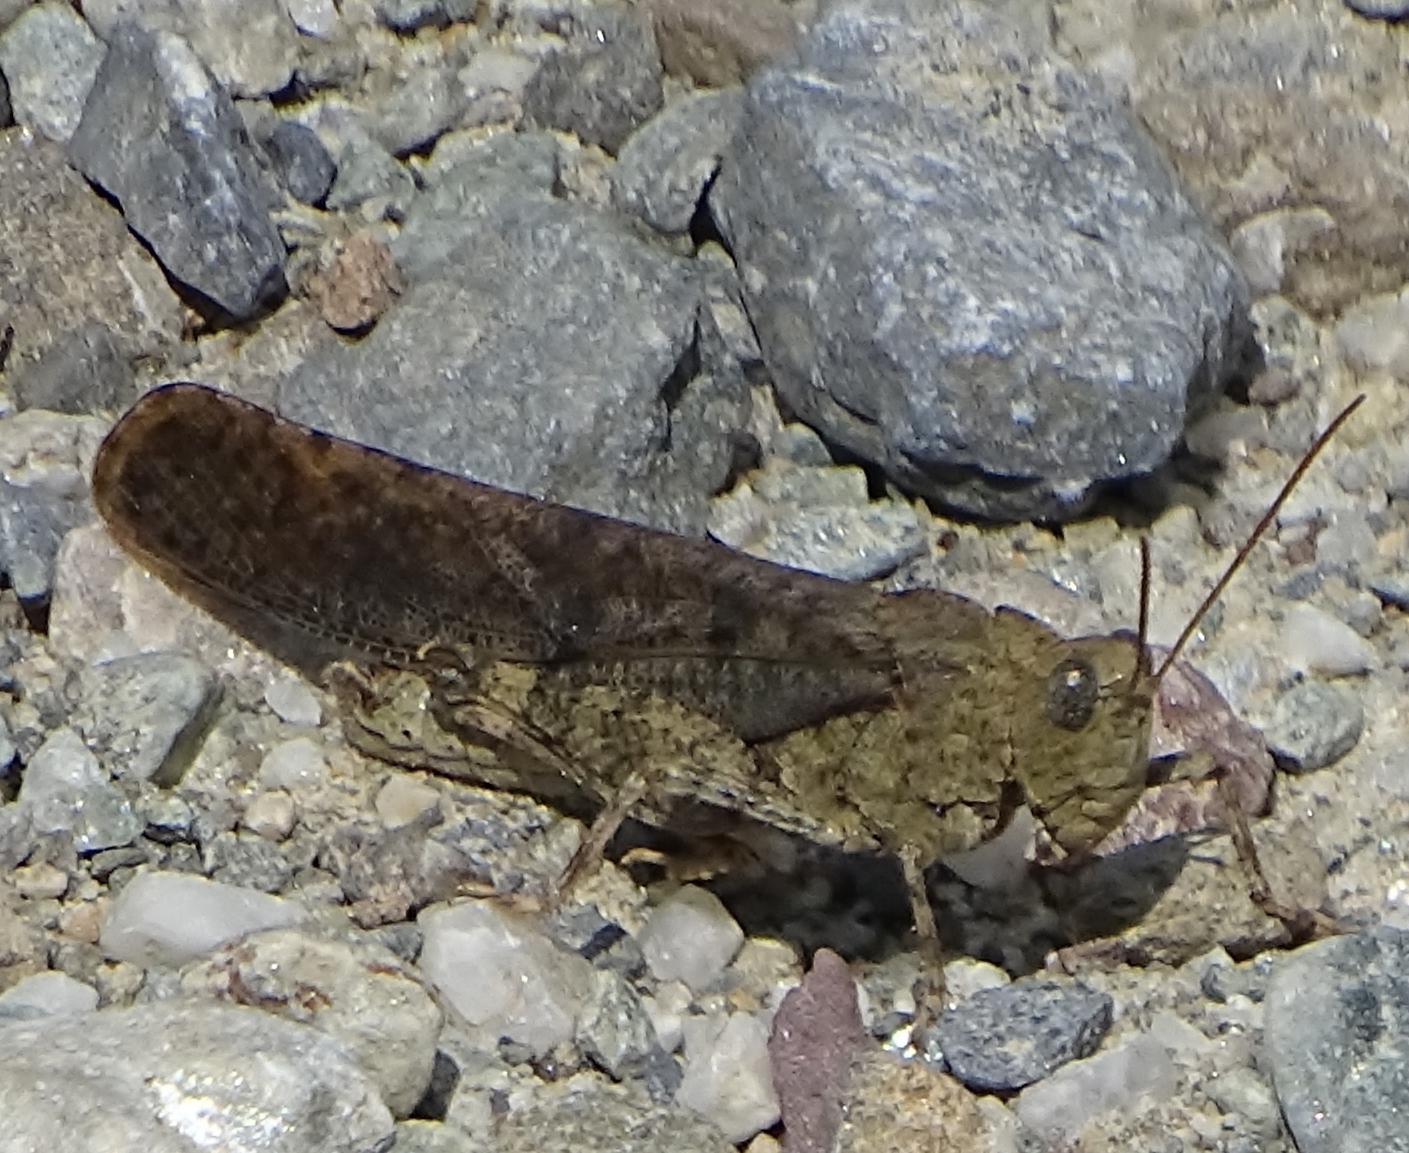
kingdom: Animalia
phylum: Arthropoda
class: Insecta
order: Orthoptera
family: Acrididae
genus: Dissosteira
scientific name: Dissosteira carolina
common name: Carolina grasshopper
